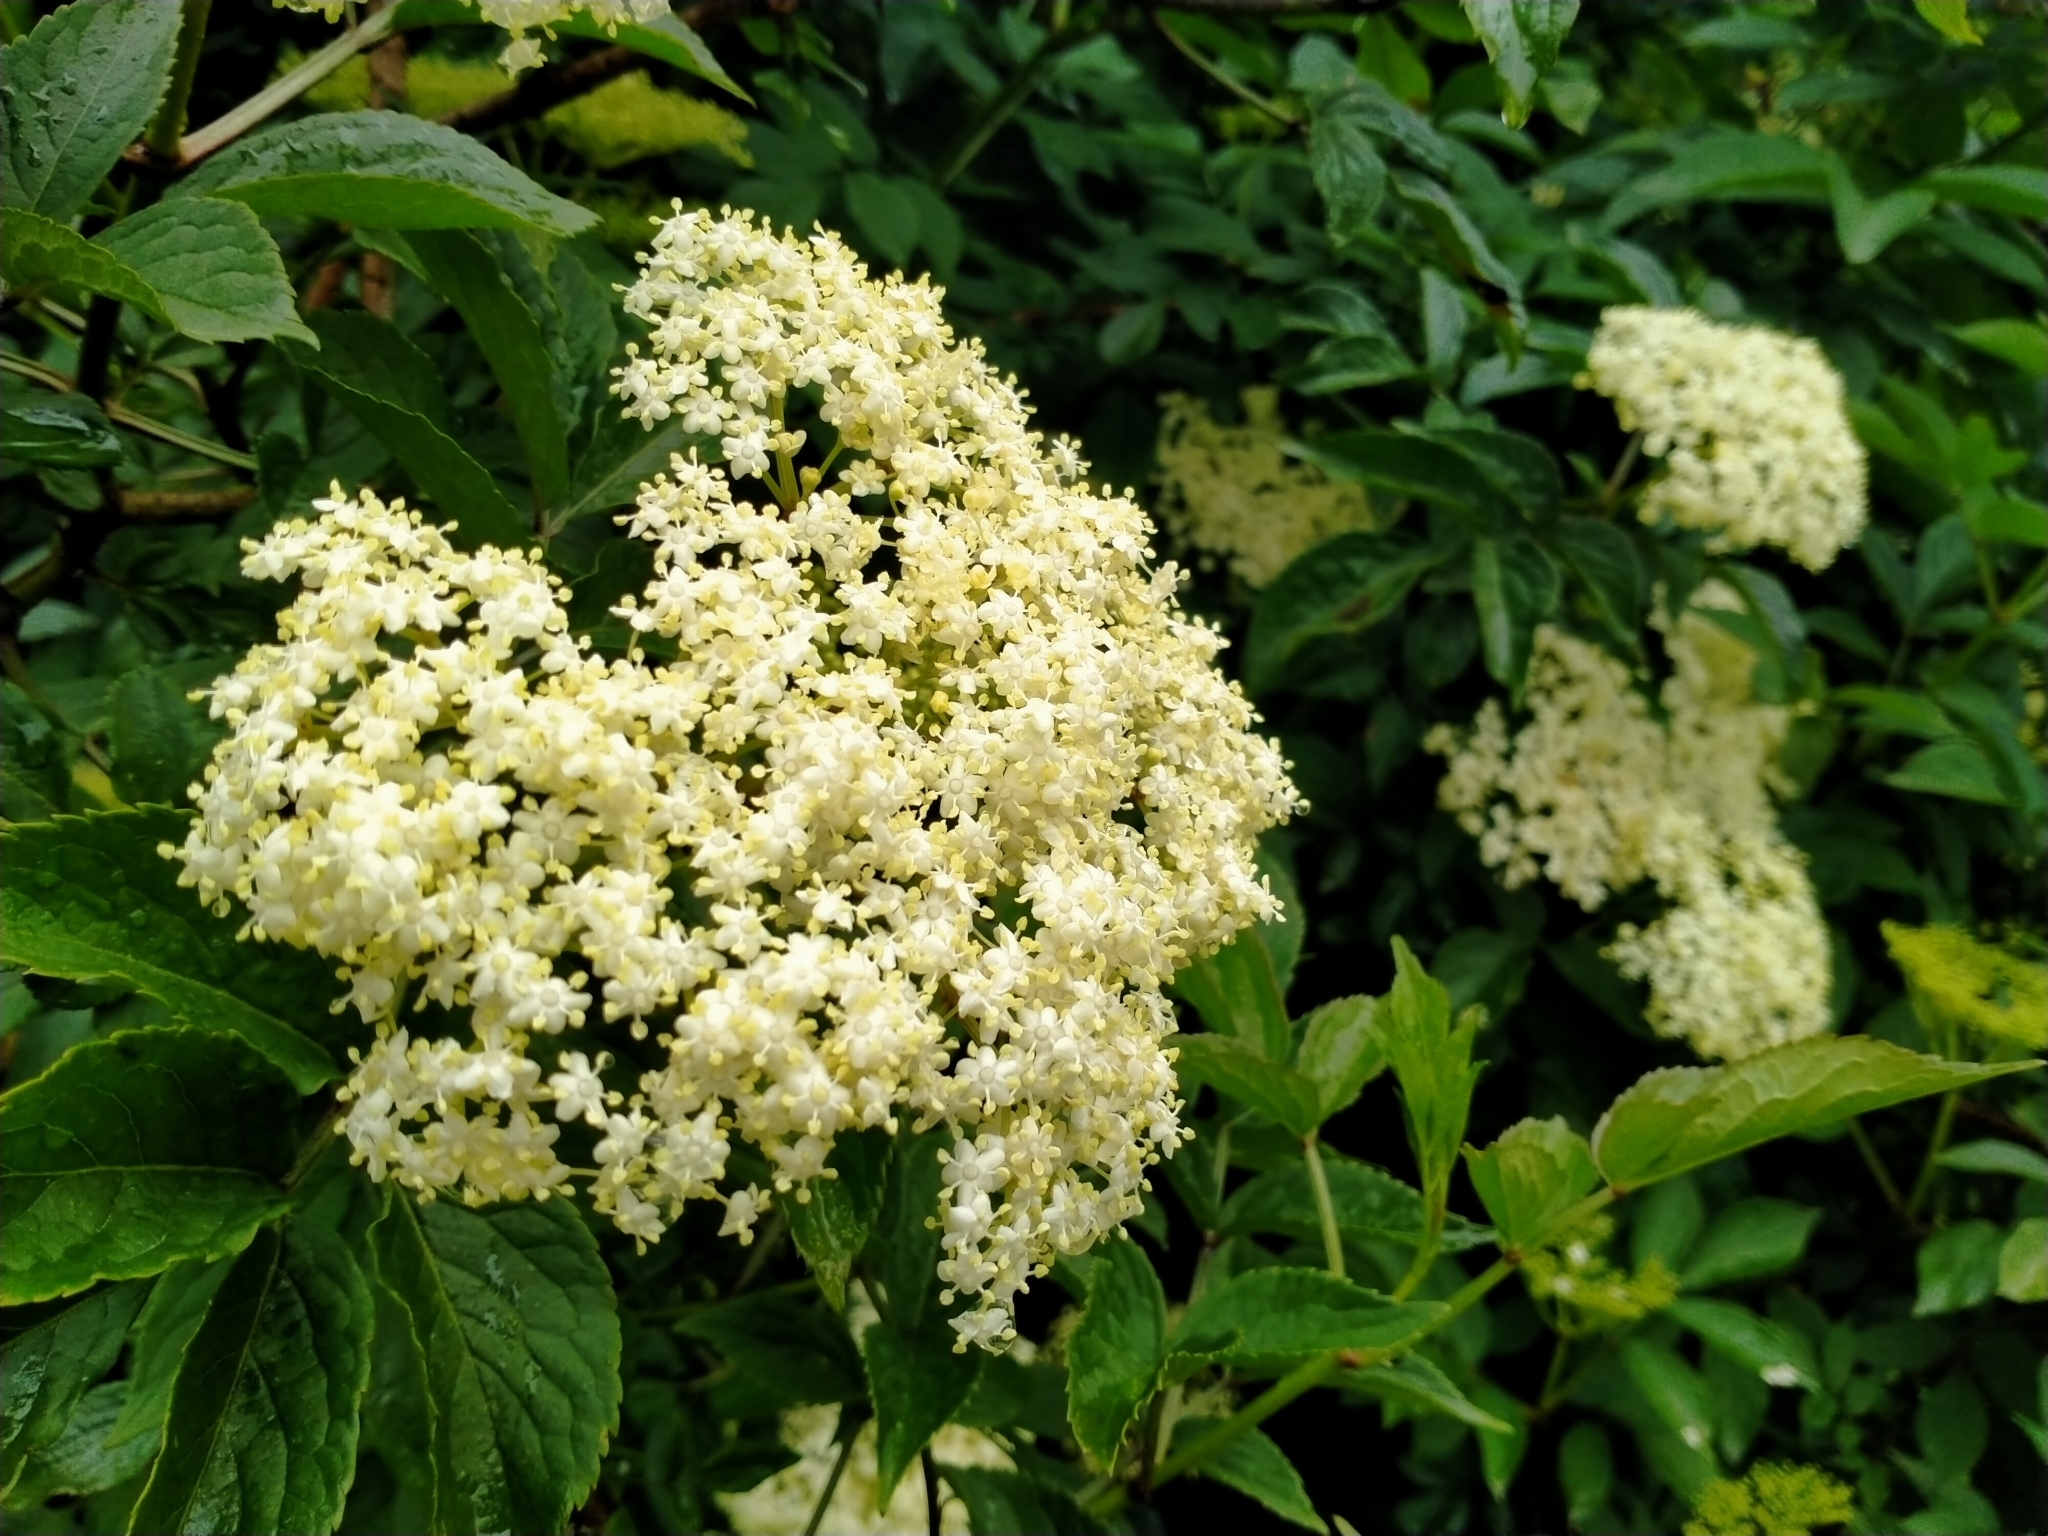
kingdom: Plantae
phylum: Tracheophyta
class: Magnoliopsida
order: Dipsacales
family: Viburnaceae
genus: Sambucus
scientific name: Sambucus nigra
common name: Elder
